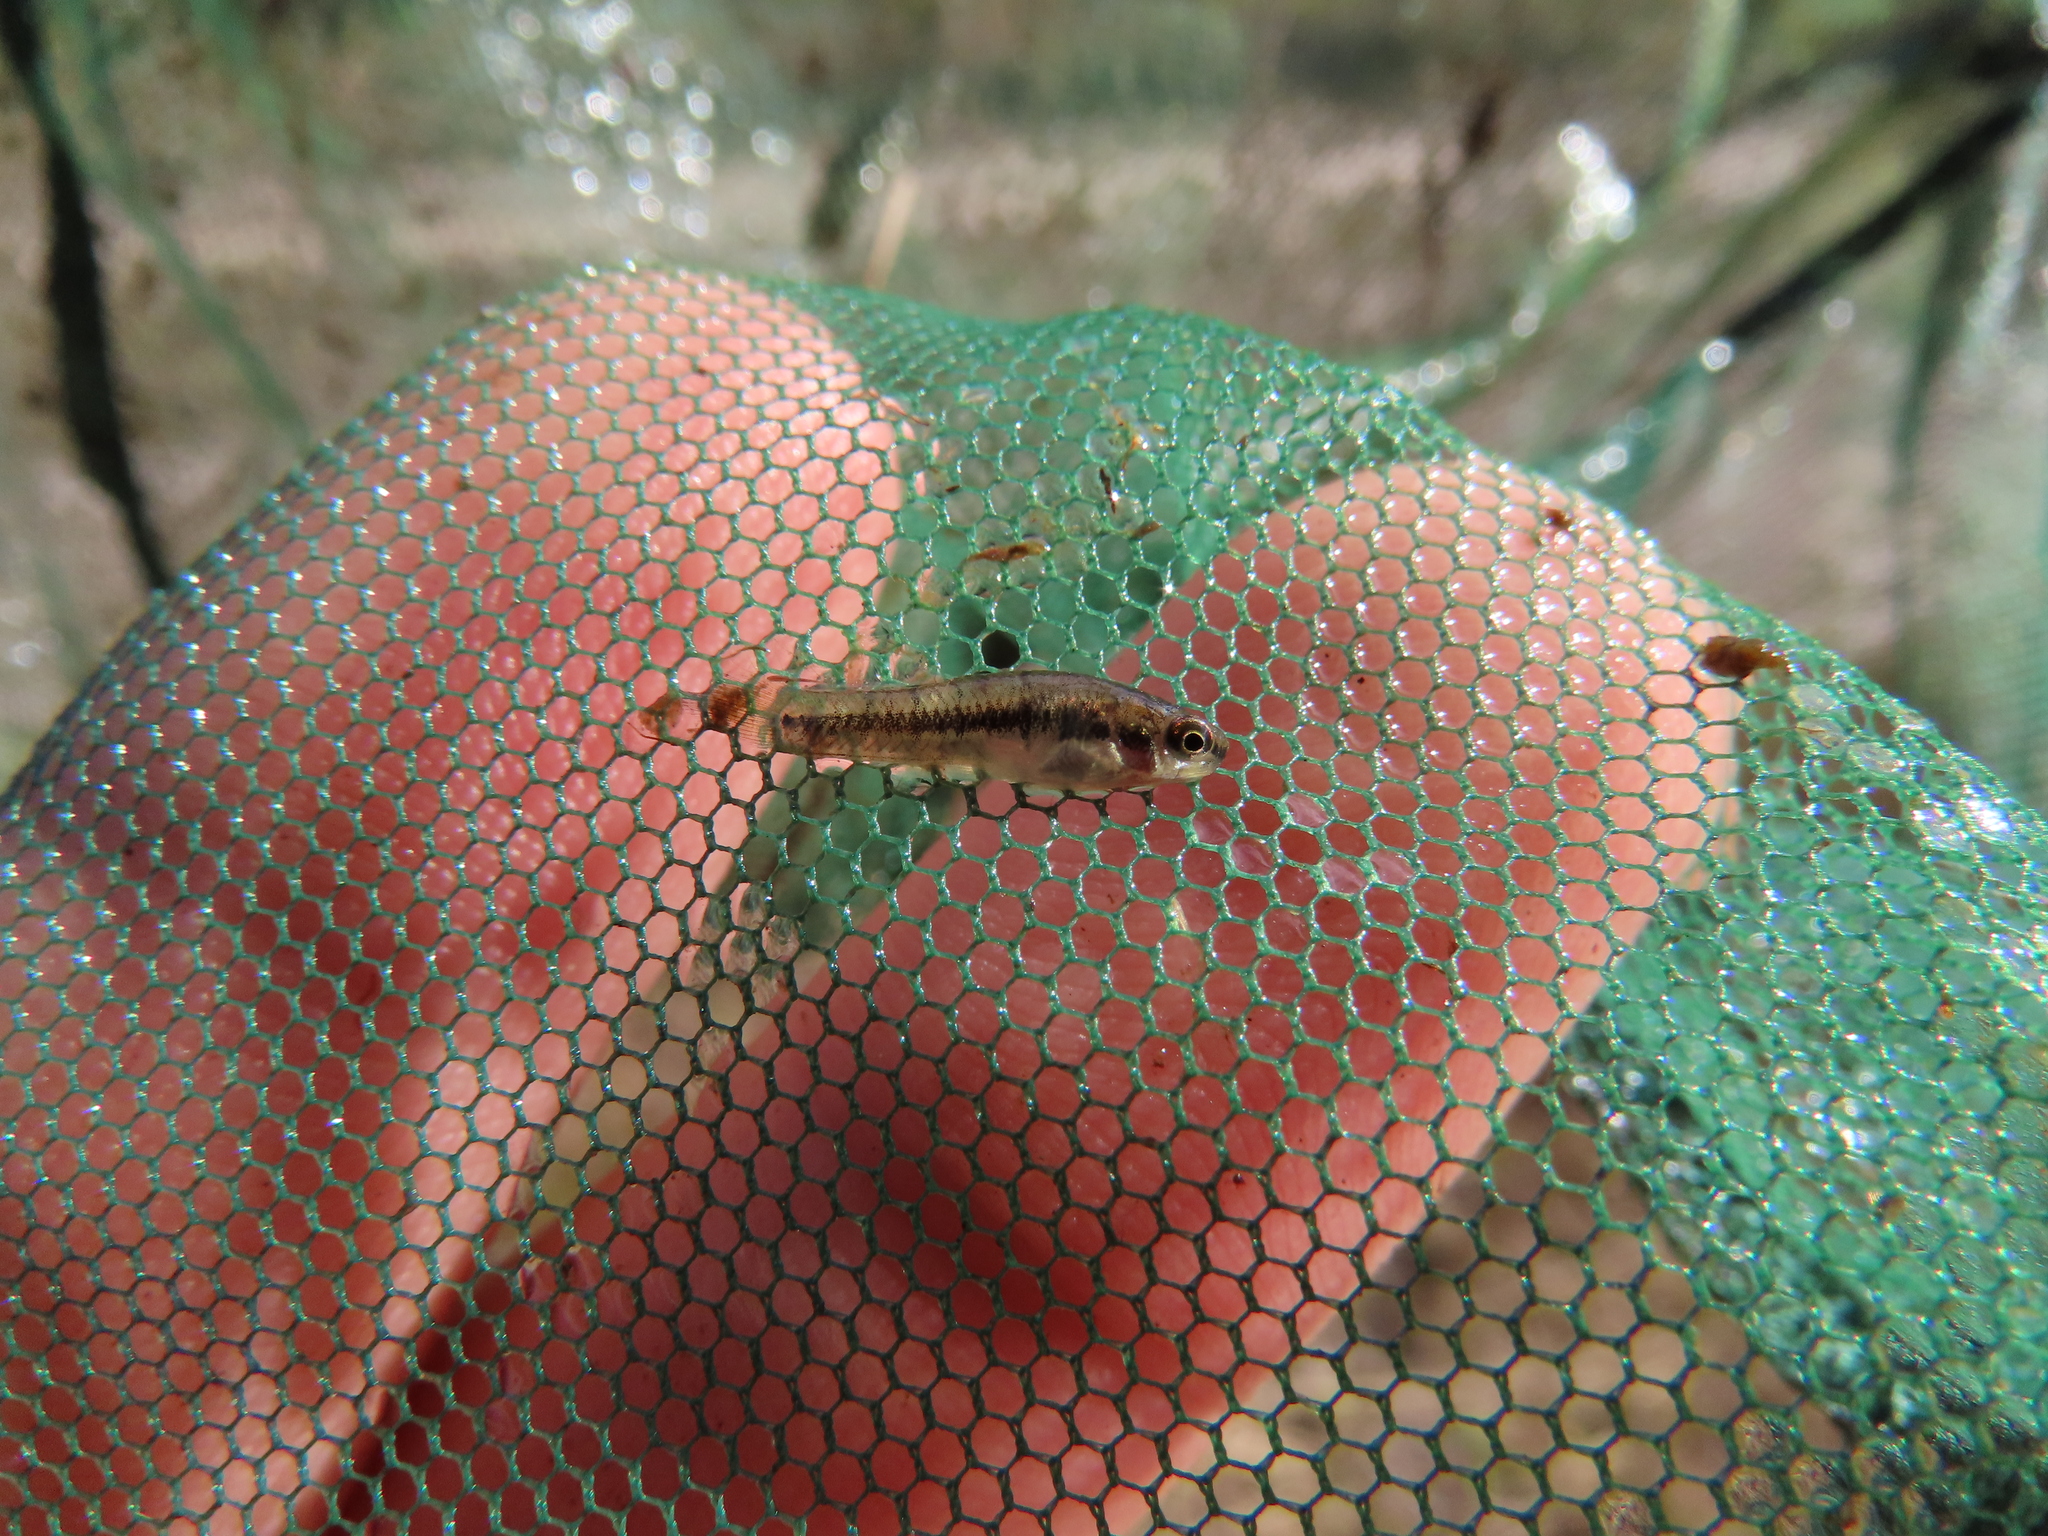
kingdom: Animalia
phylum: Chordata
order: Cyprinodontiformes
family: Poeciliidae
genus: Heterandria
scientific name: Heterandria formosa
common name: Least killifish
